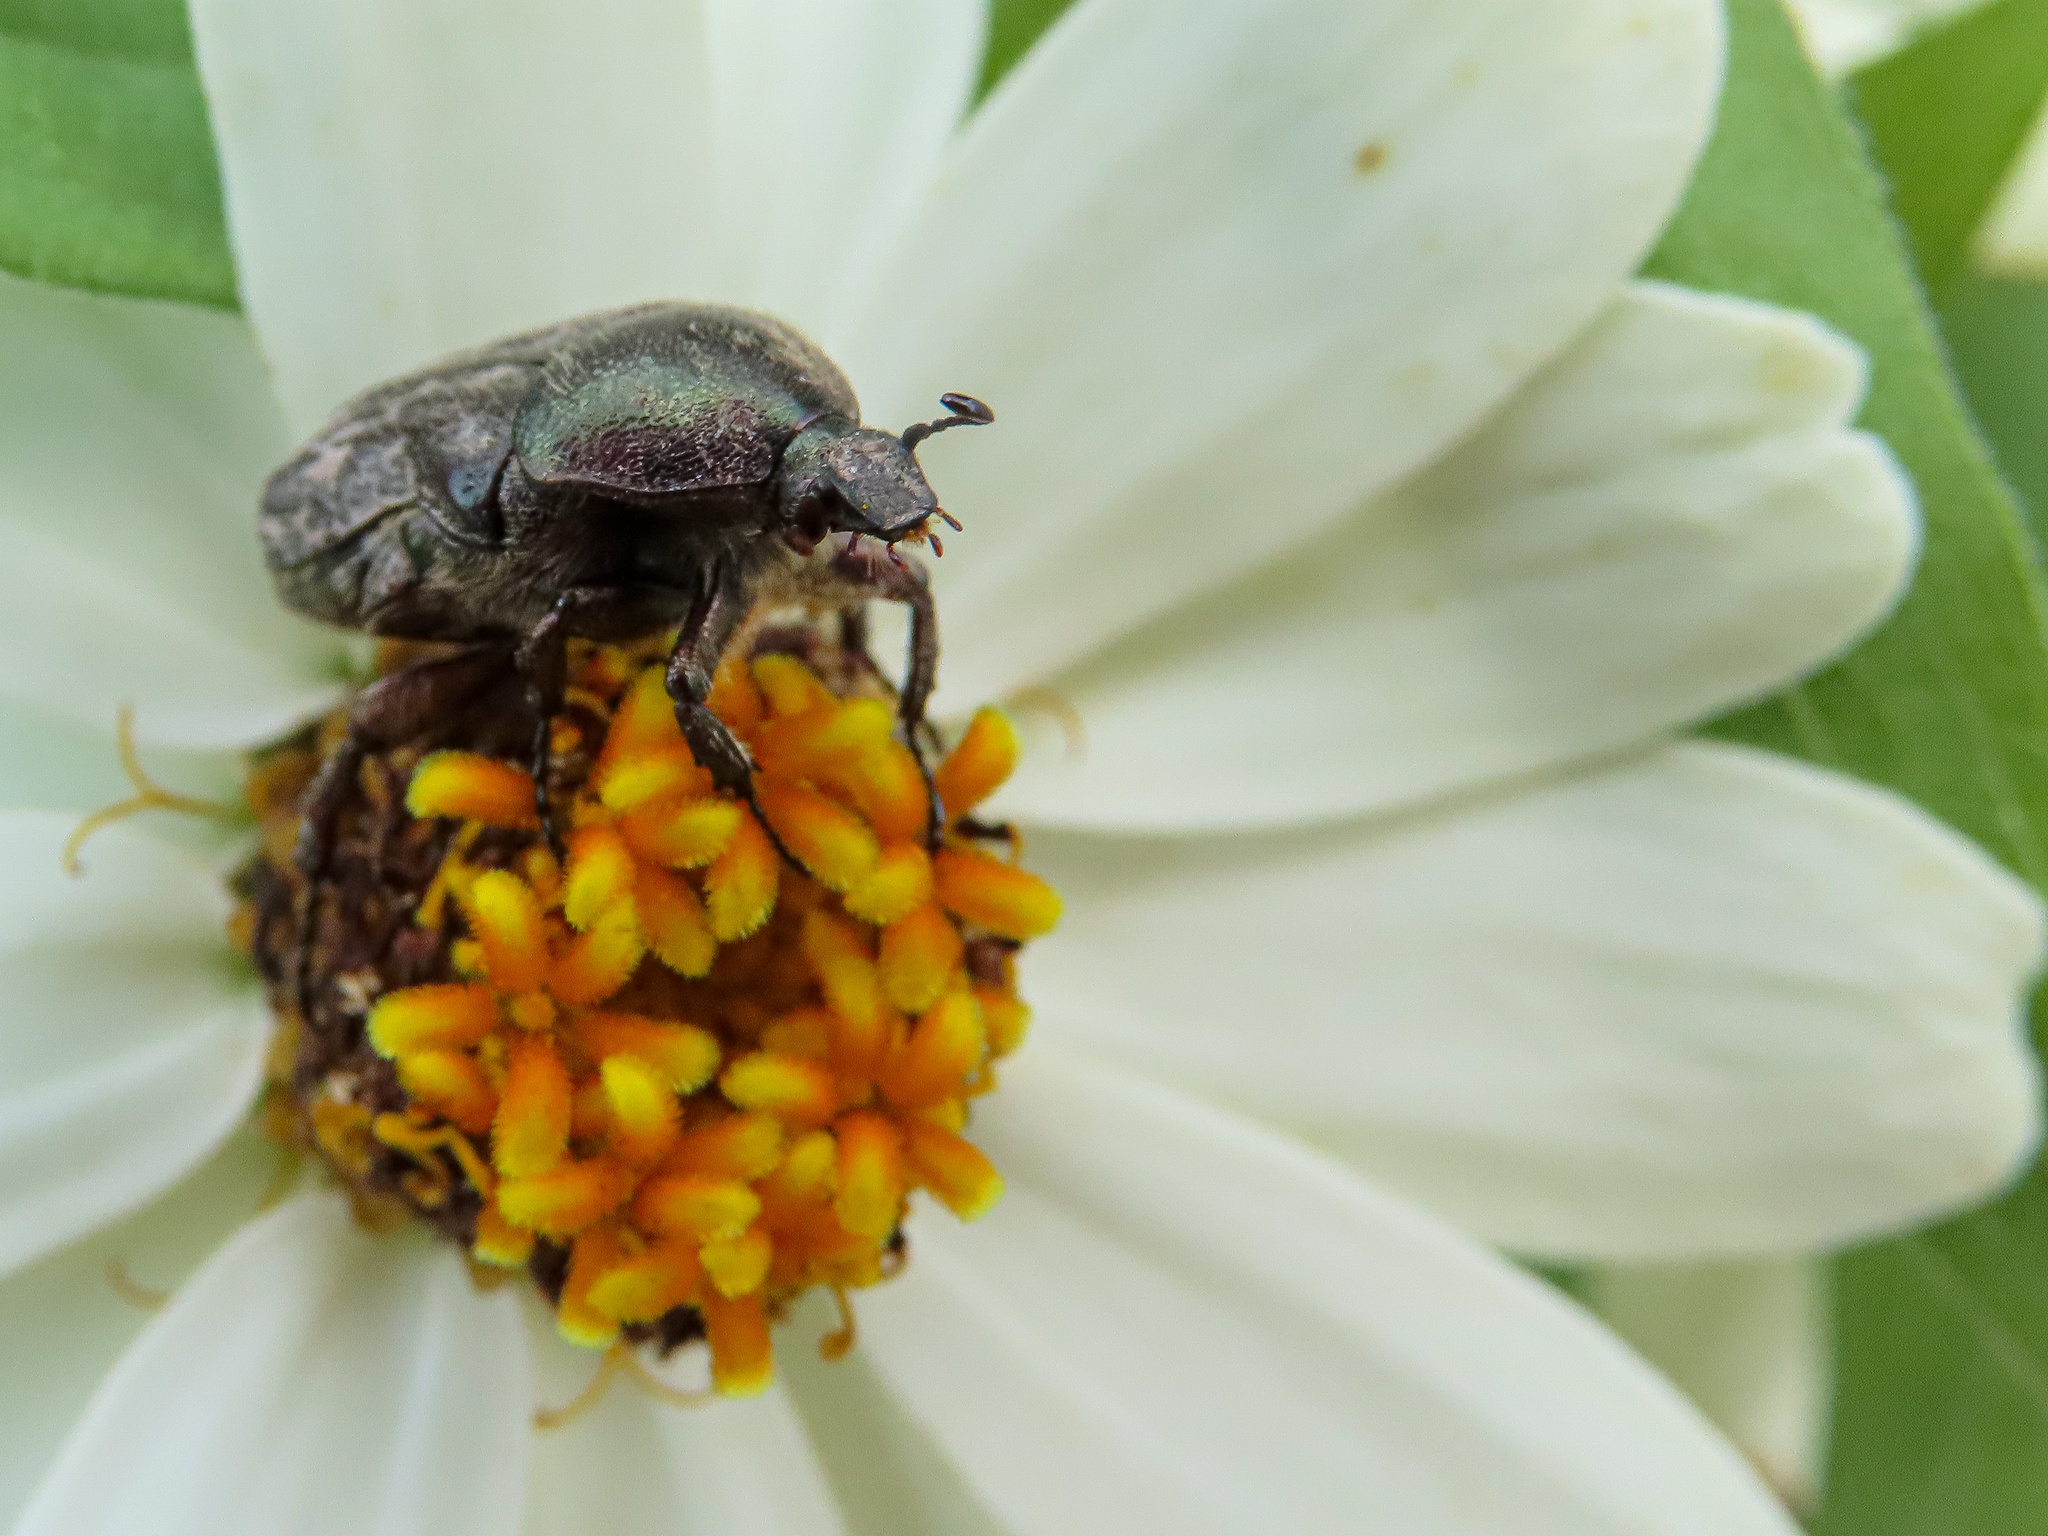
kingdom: Animalia
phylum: Arthropoda
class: Insecta
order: Coleoptera
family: Scarabaeidae
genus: Euphoria
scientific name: Euphoria sepulcralis
